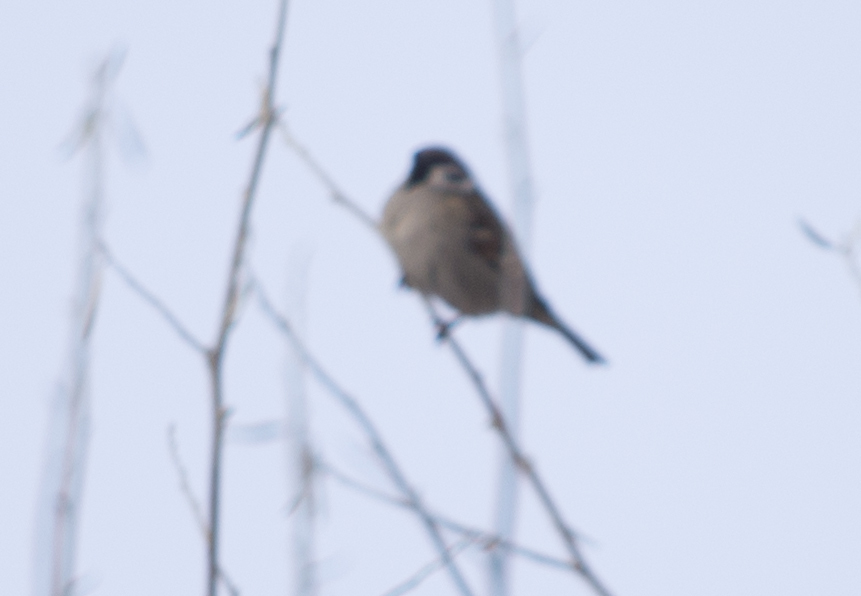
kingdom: Animalia
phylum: Chordata
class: Aves
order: Passeriformes
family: Passeridae
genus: Passer
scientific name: Passer montanus
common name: Eurasian tree sparrow
